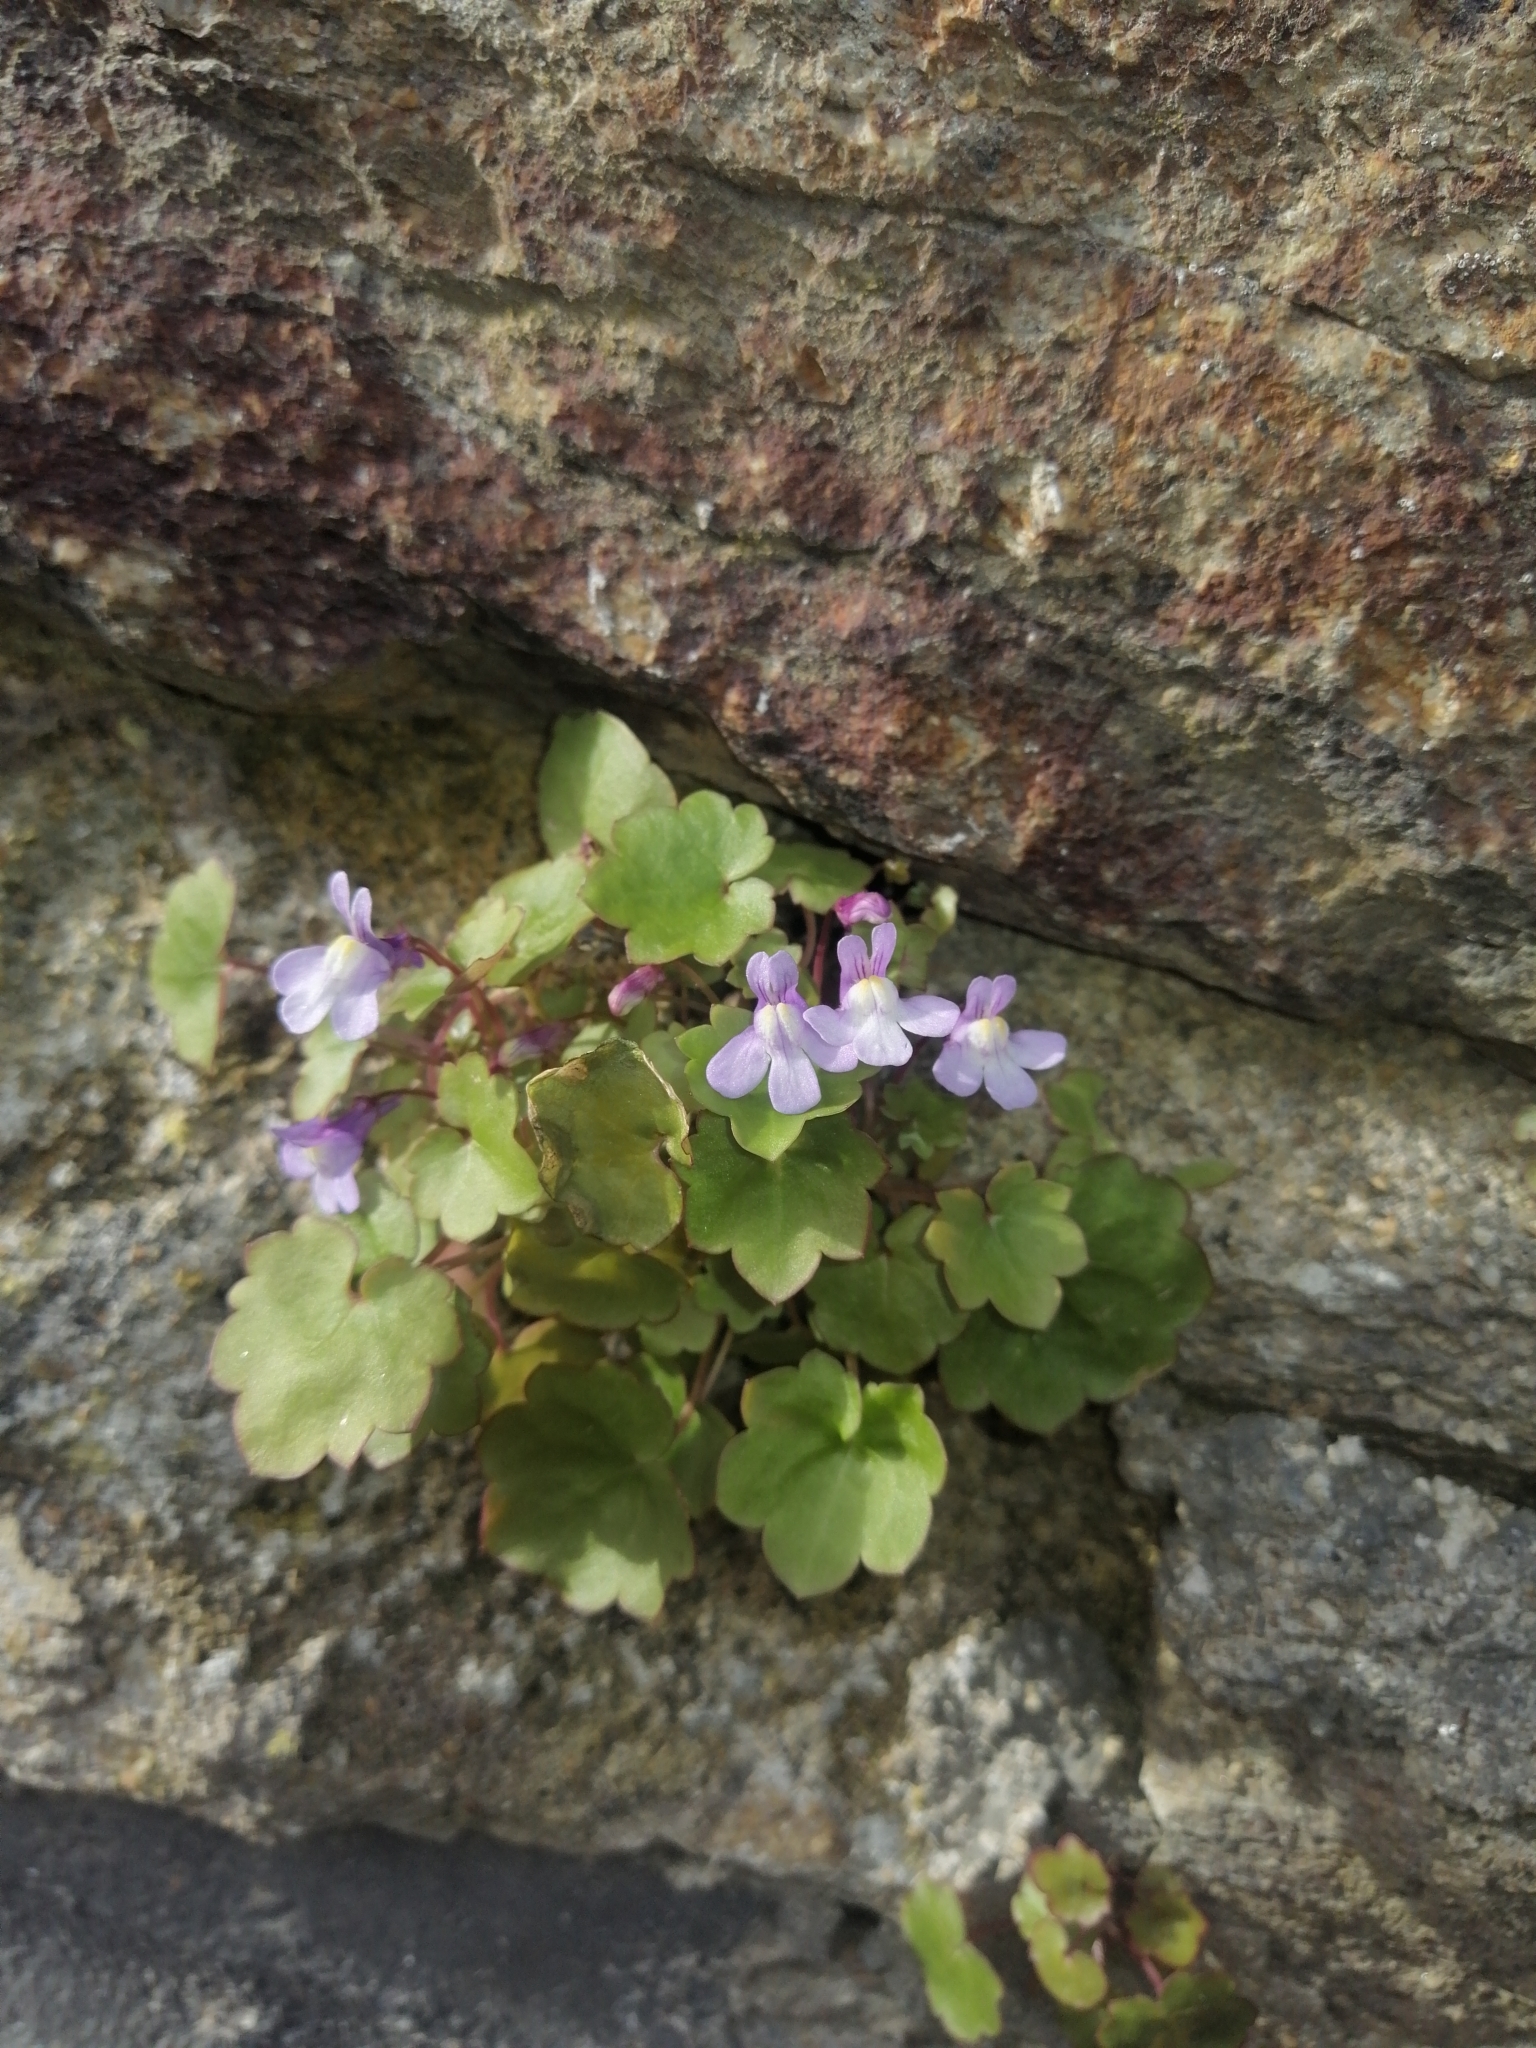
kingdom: Plantae
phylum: Tracheophyta
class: Magnoliopsida
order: Lamiales
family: Plantaginaceae
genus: Cymbalaria
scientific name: Cymbalaria muralis
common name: Ivy-leaved toadflax
